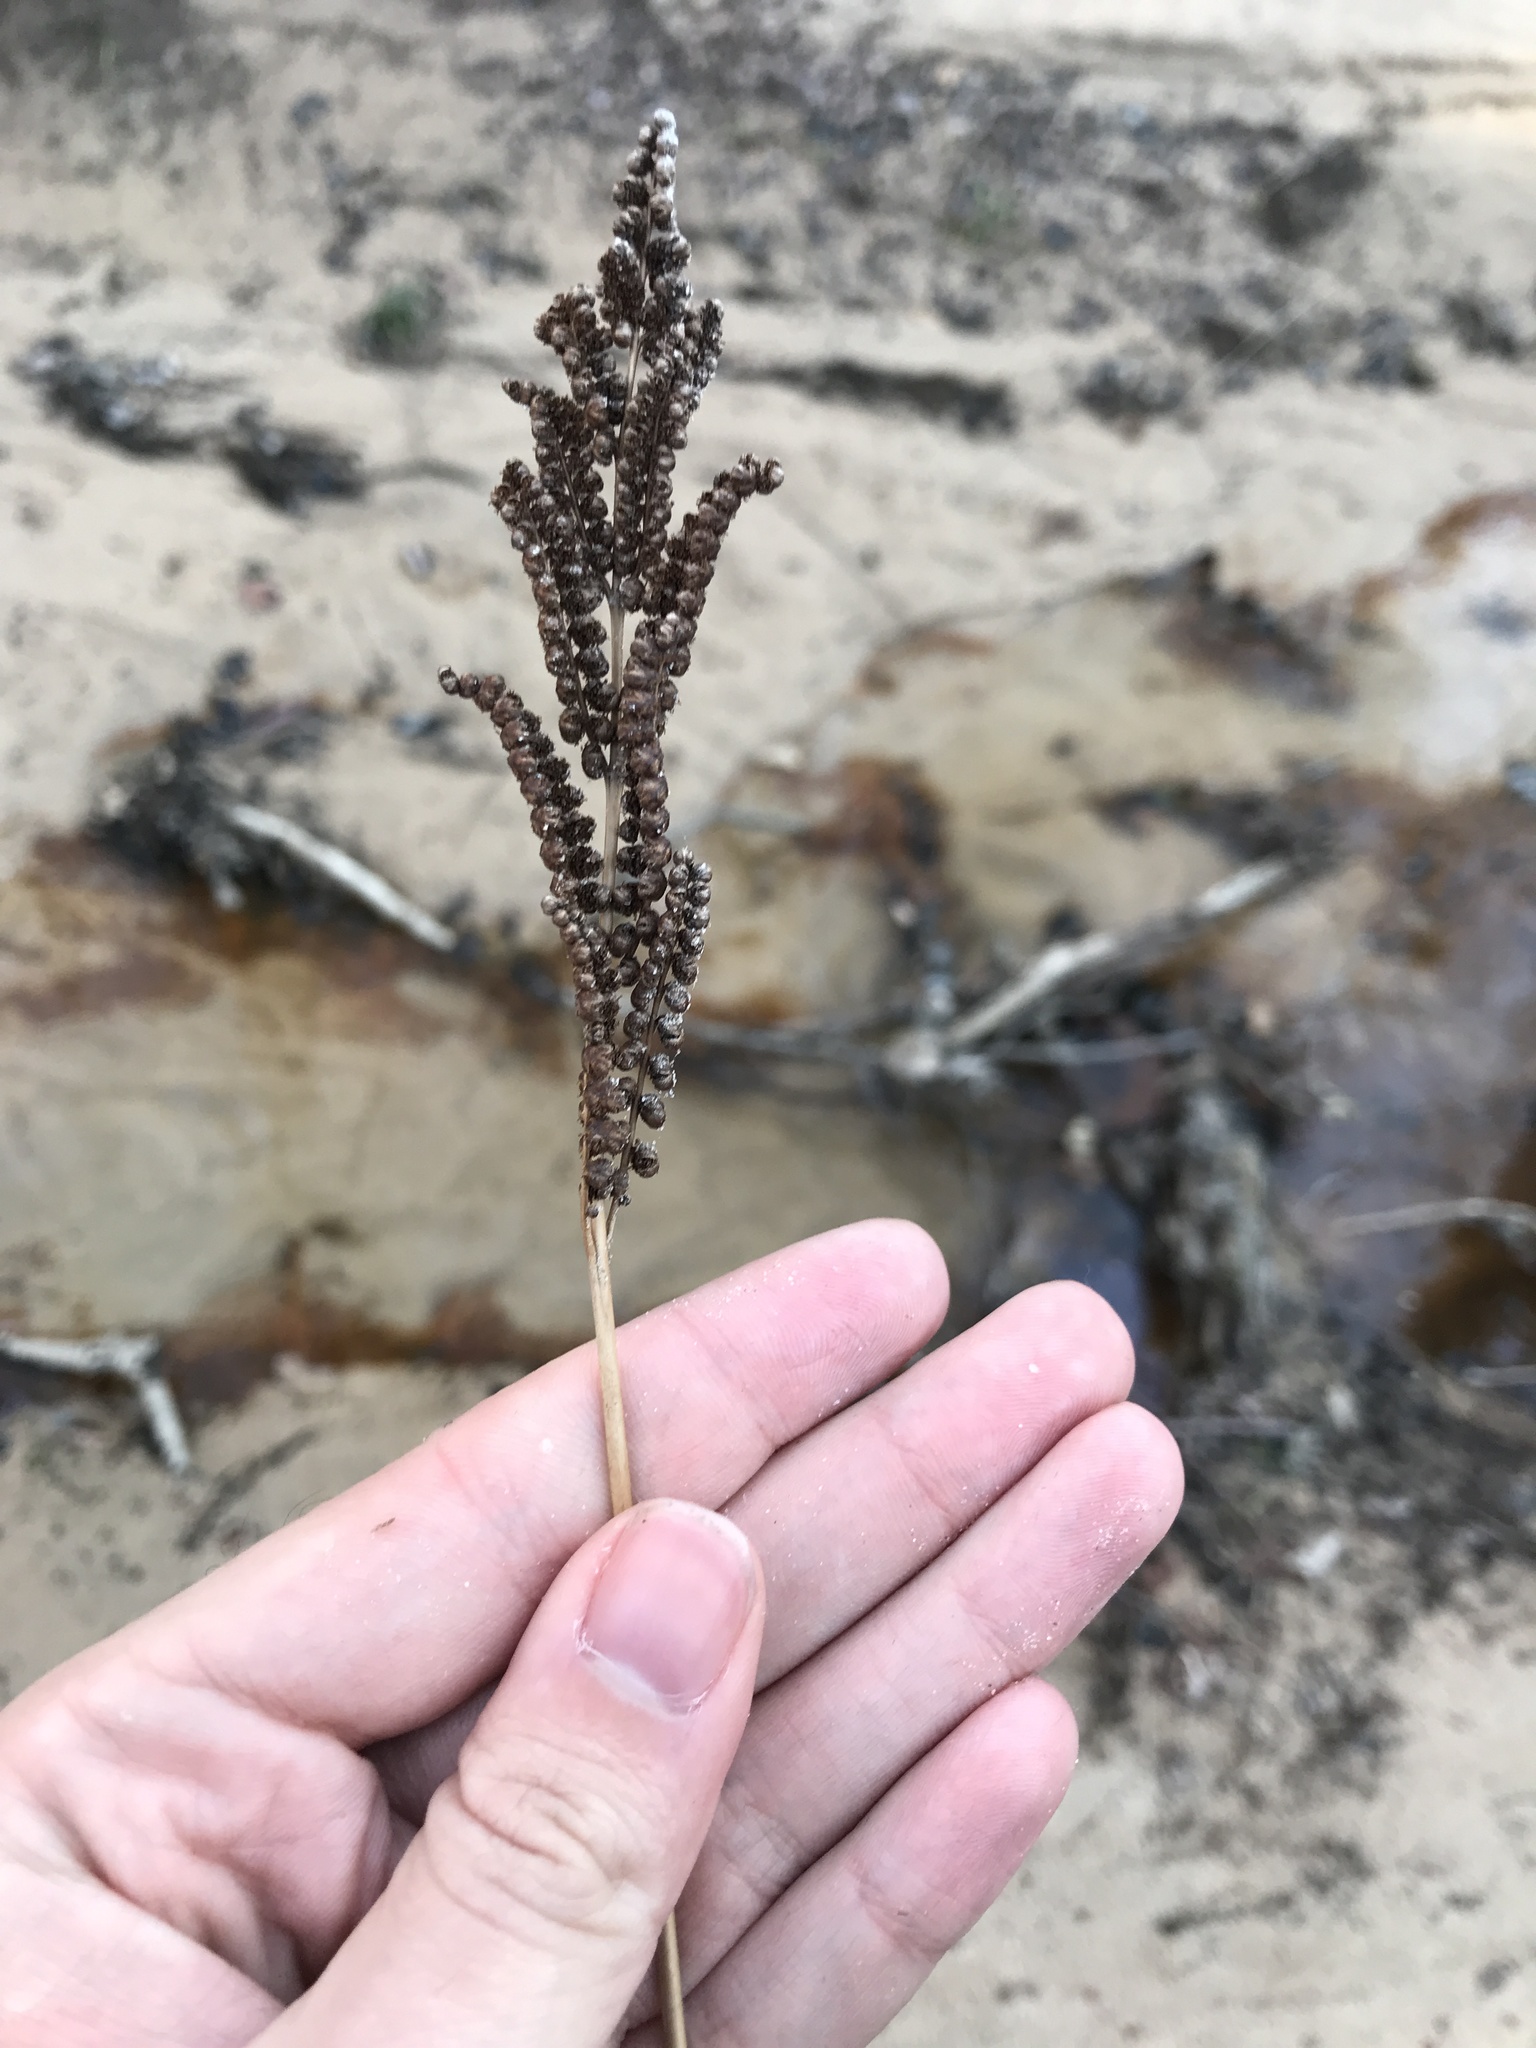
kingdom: Plantae
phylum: Tracheophyta
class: Polypodiopsida
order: Polypodiales
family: Onocleaceae
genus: Onoclea
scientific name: Onoclea sensibilis
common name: Sensitive fern
